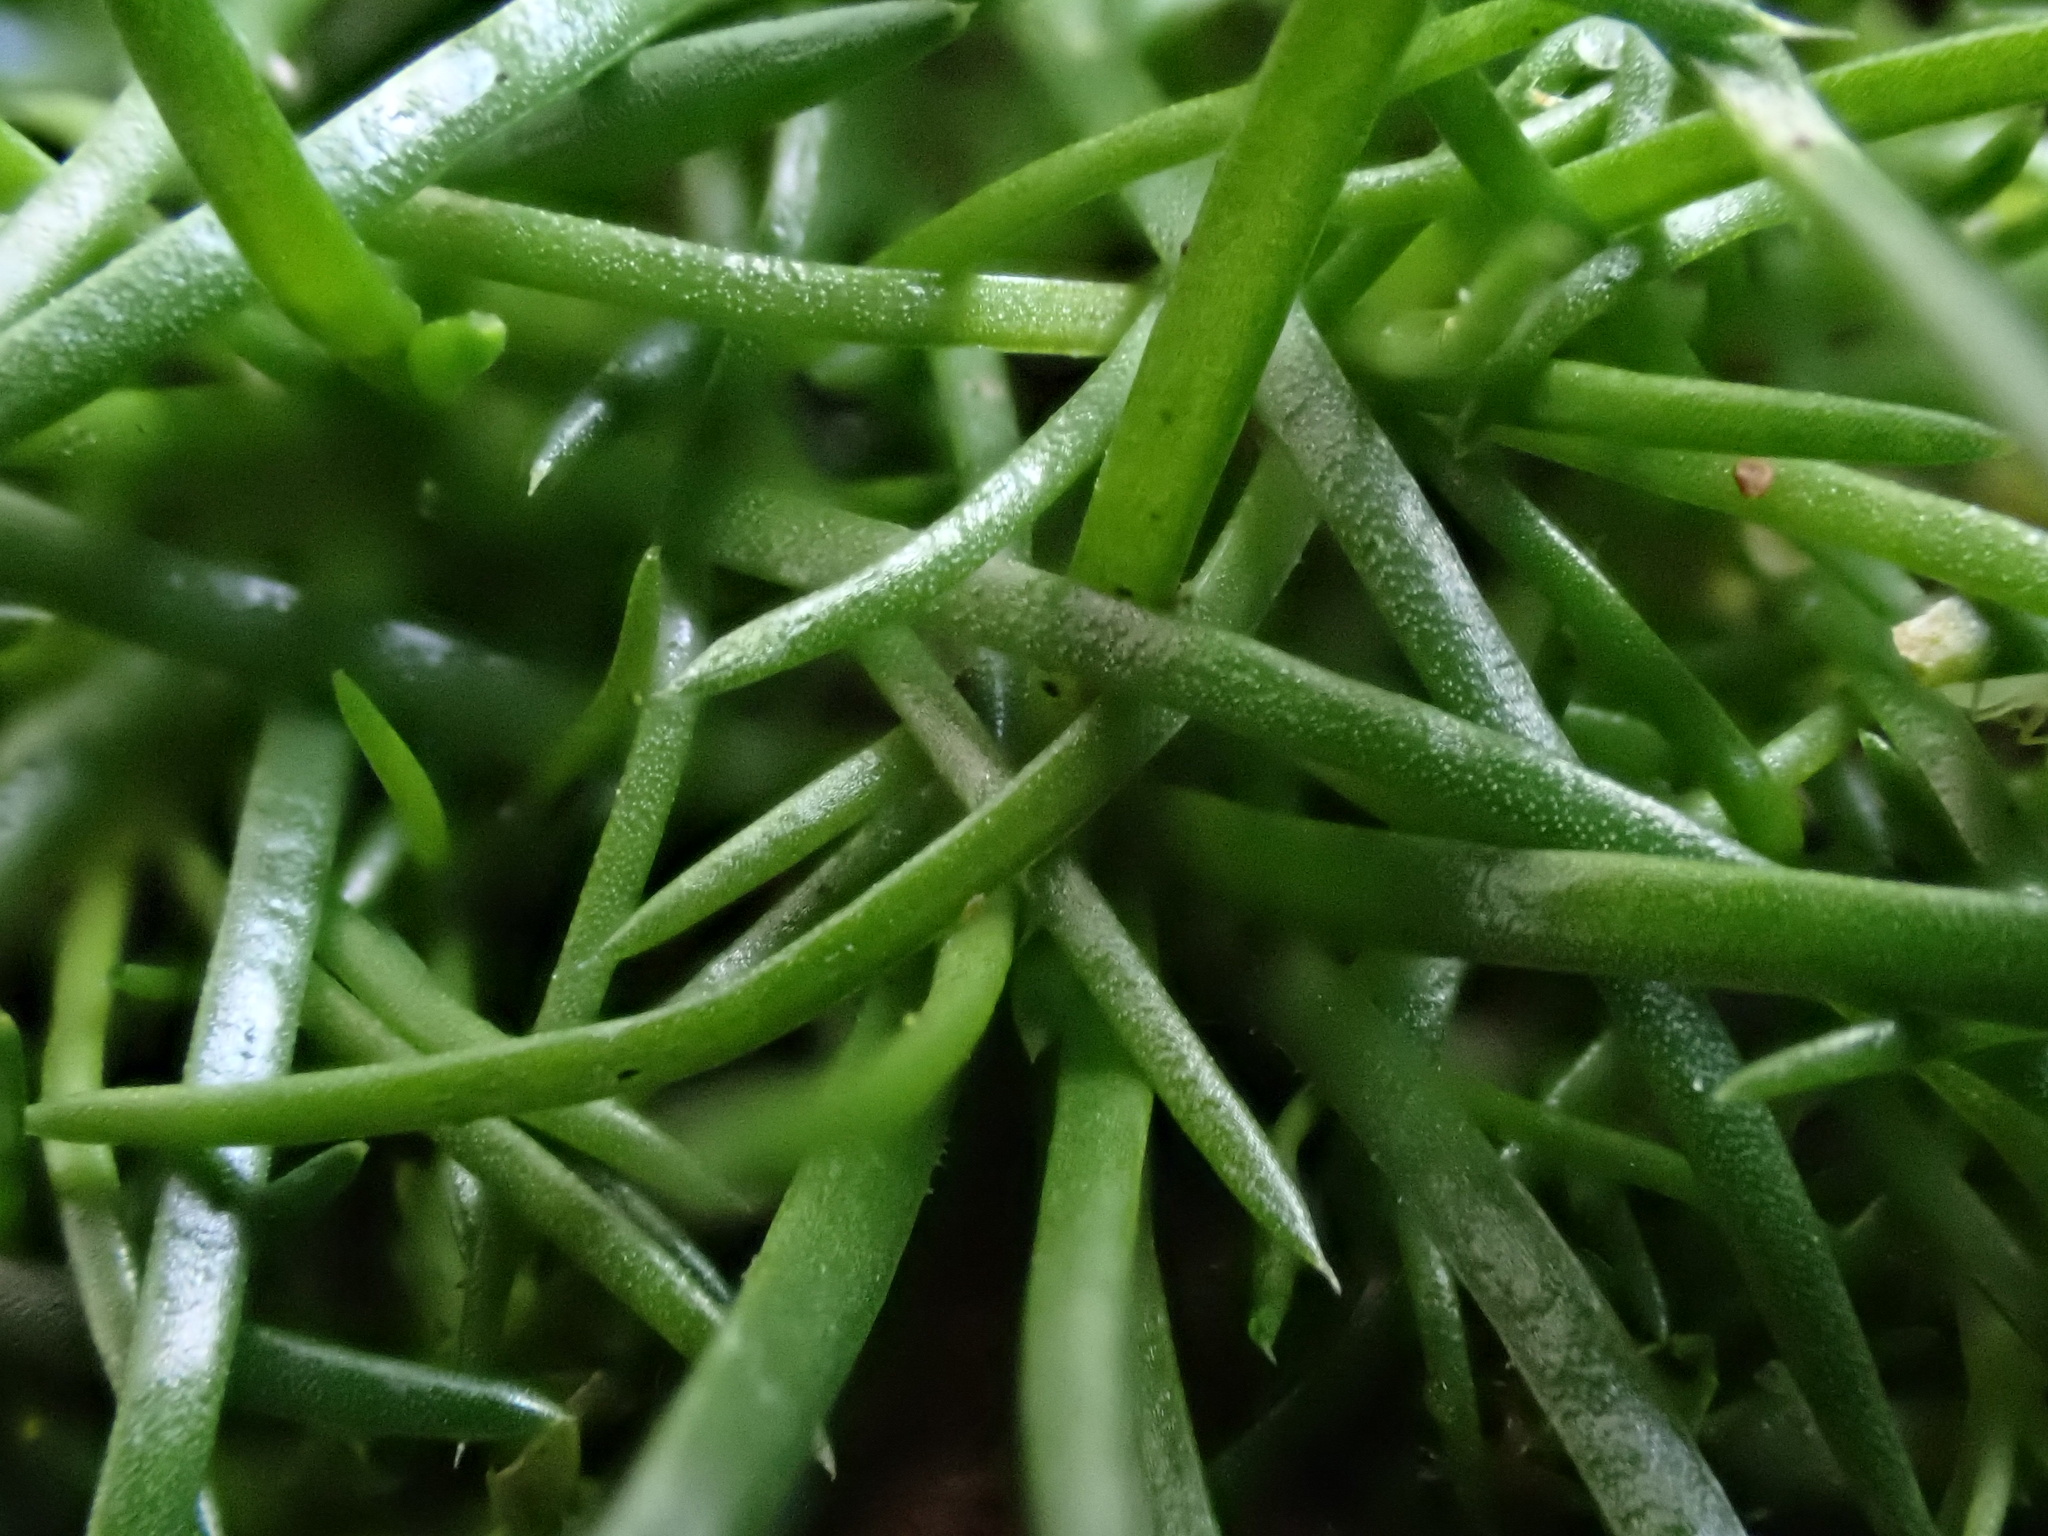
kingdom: Plantae
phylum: Tracheophyta
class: Magnoliopsida
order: Caryophyllales
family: Caryophyllaceae
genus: Sagina
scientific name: Sagina procumbens
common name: Procumbent pearlwort
